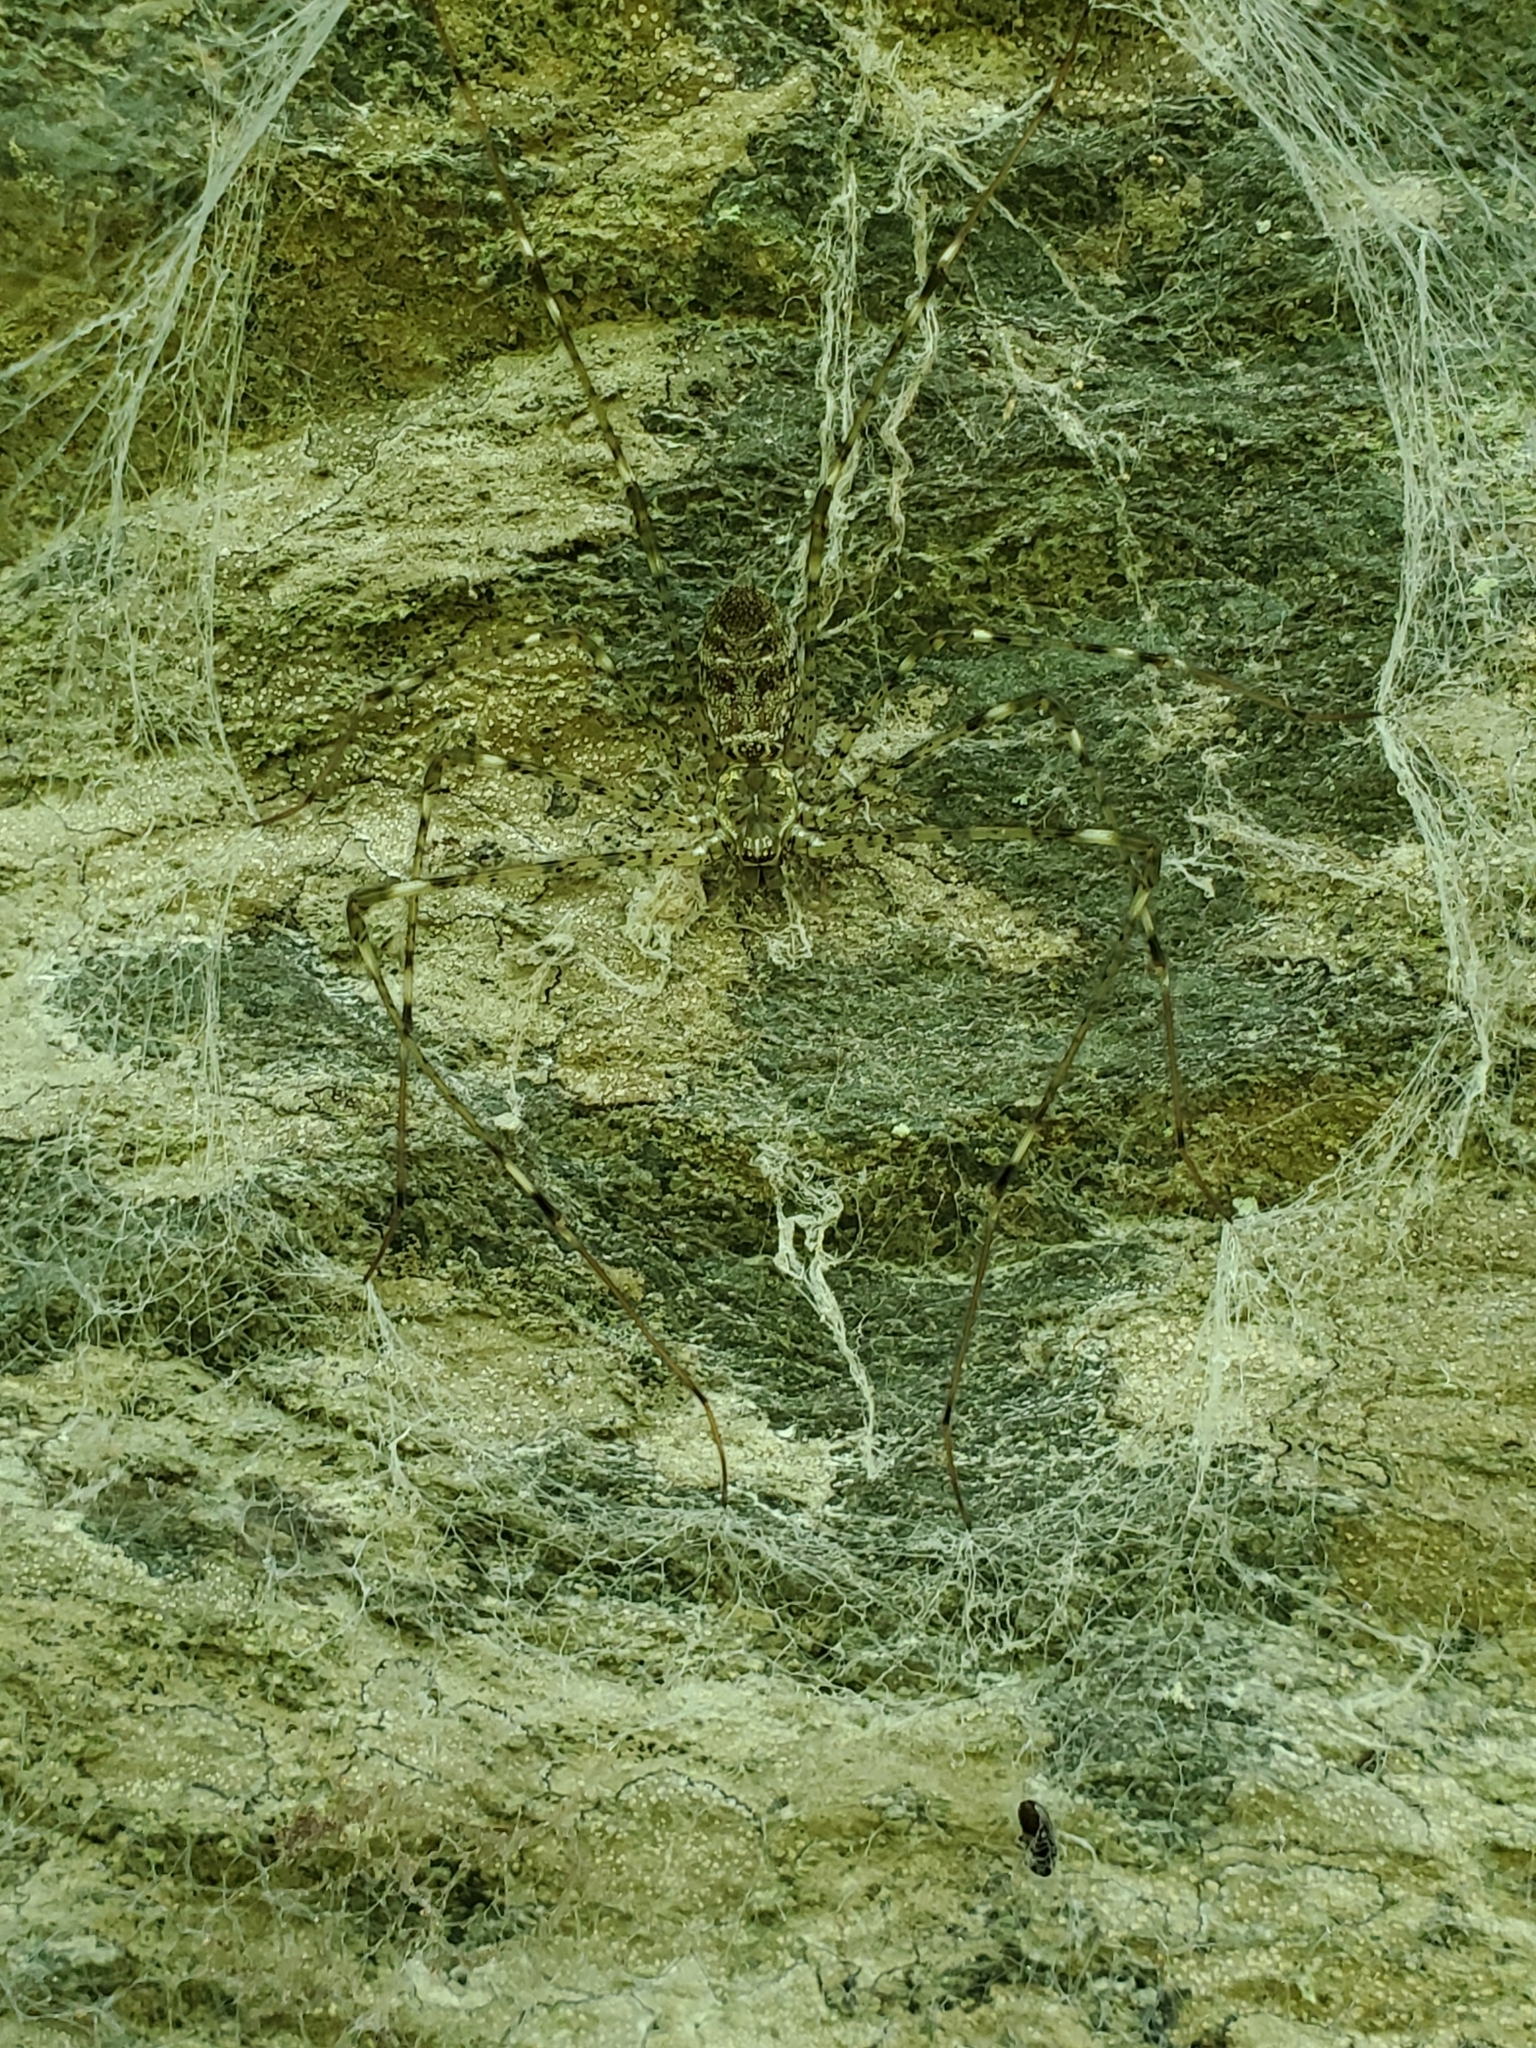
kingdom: Animalia
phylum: Arthropoda
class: Arachnida
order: Araneae
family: Hypochilidae
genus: Hypochilus
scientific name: Hypochilus pococki
